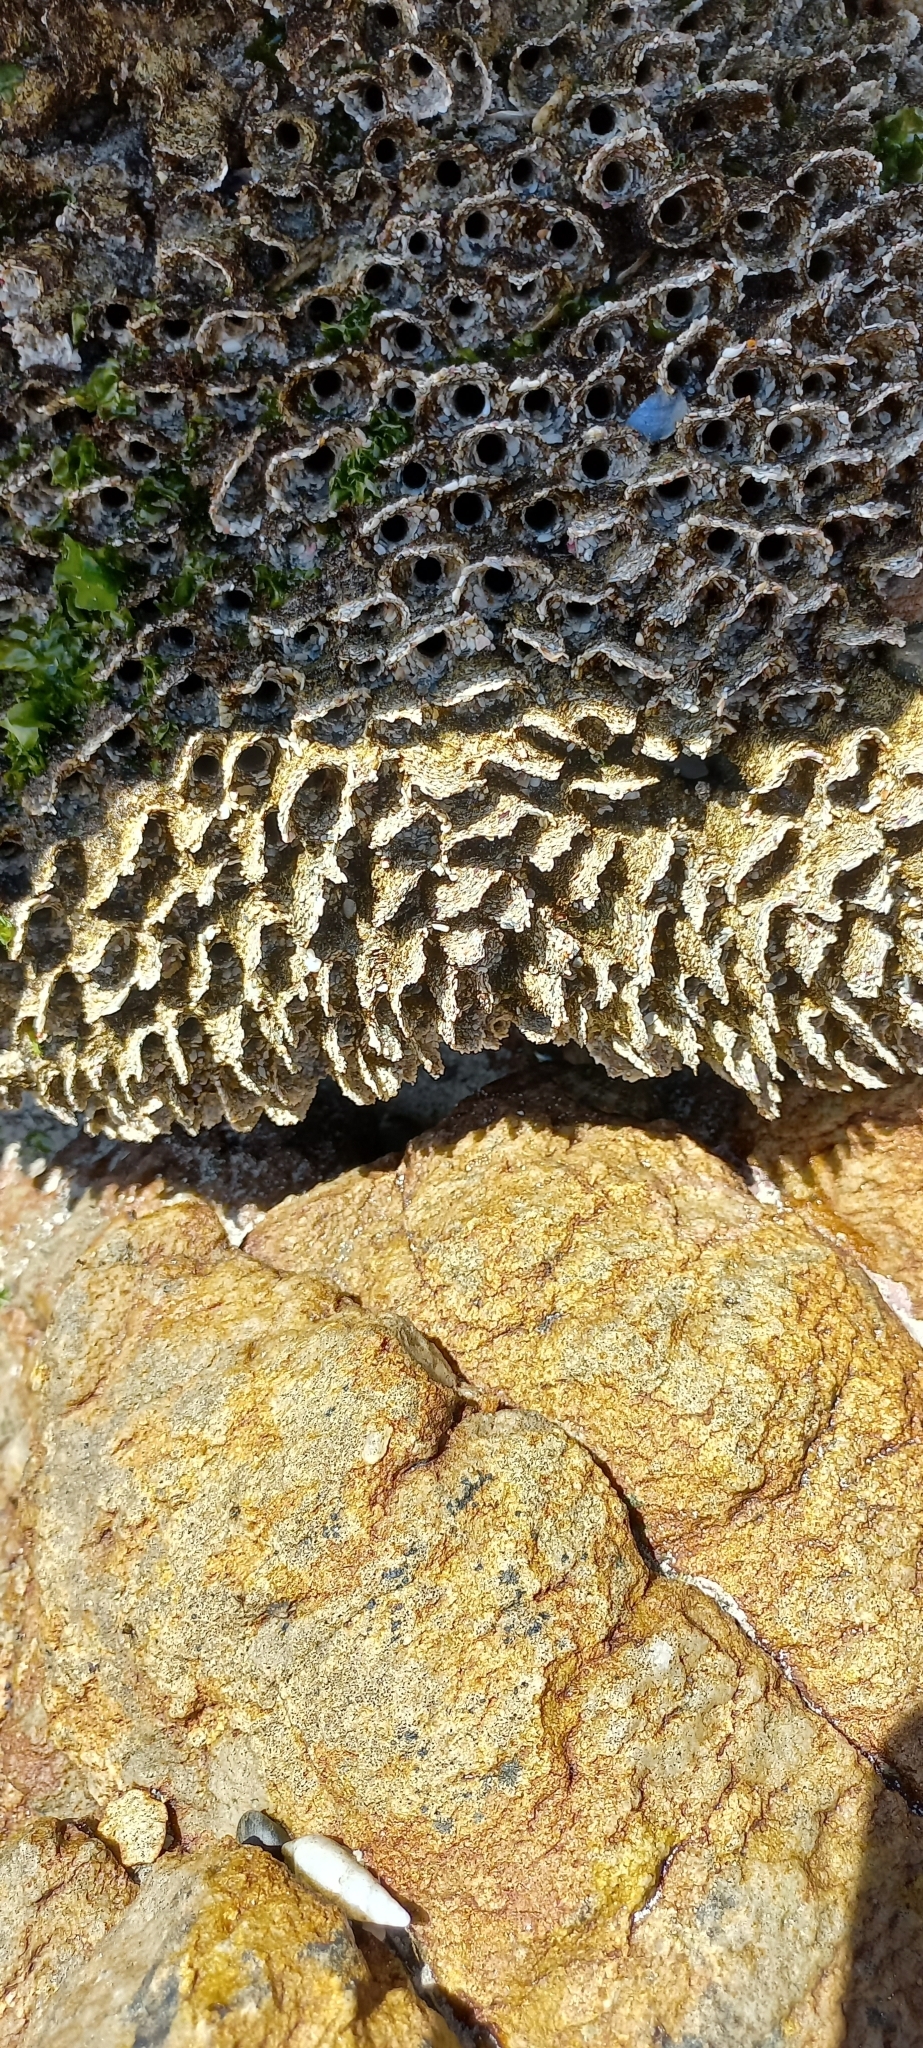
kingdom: Animalia
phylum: Annelida
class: Polychaeta
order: Sabellida
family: Sabellariidae
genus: Gunnarea
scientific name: Gunnarea gaimardi
